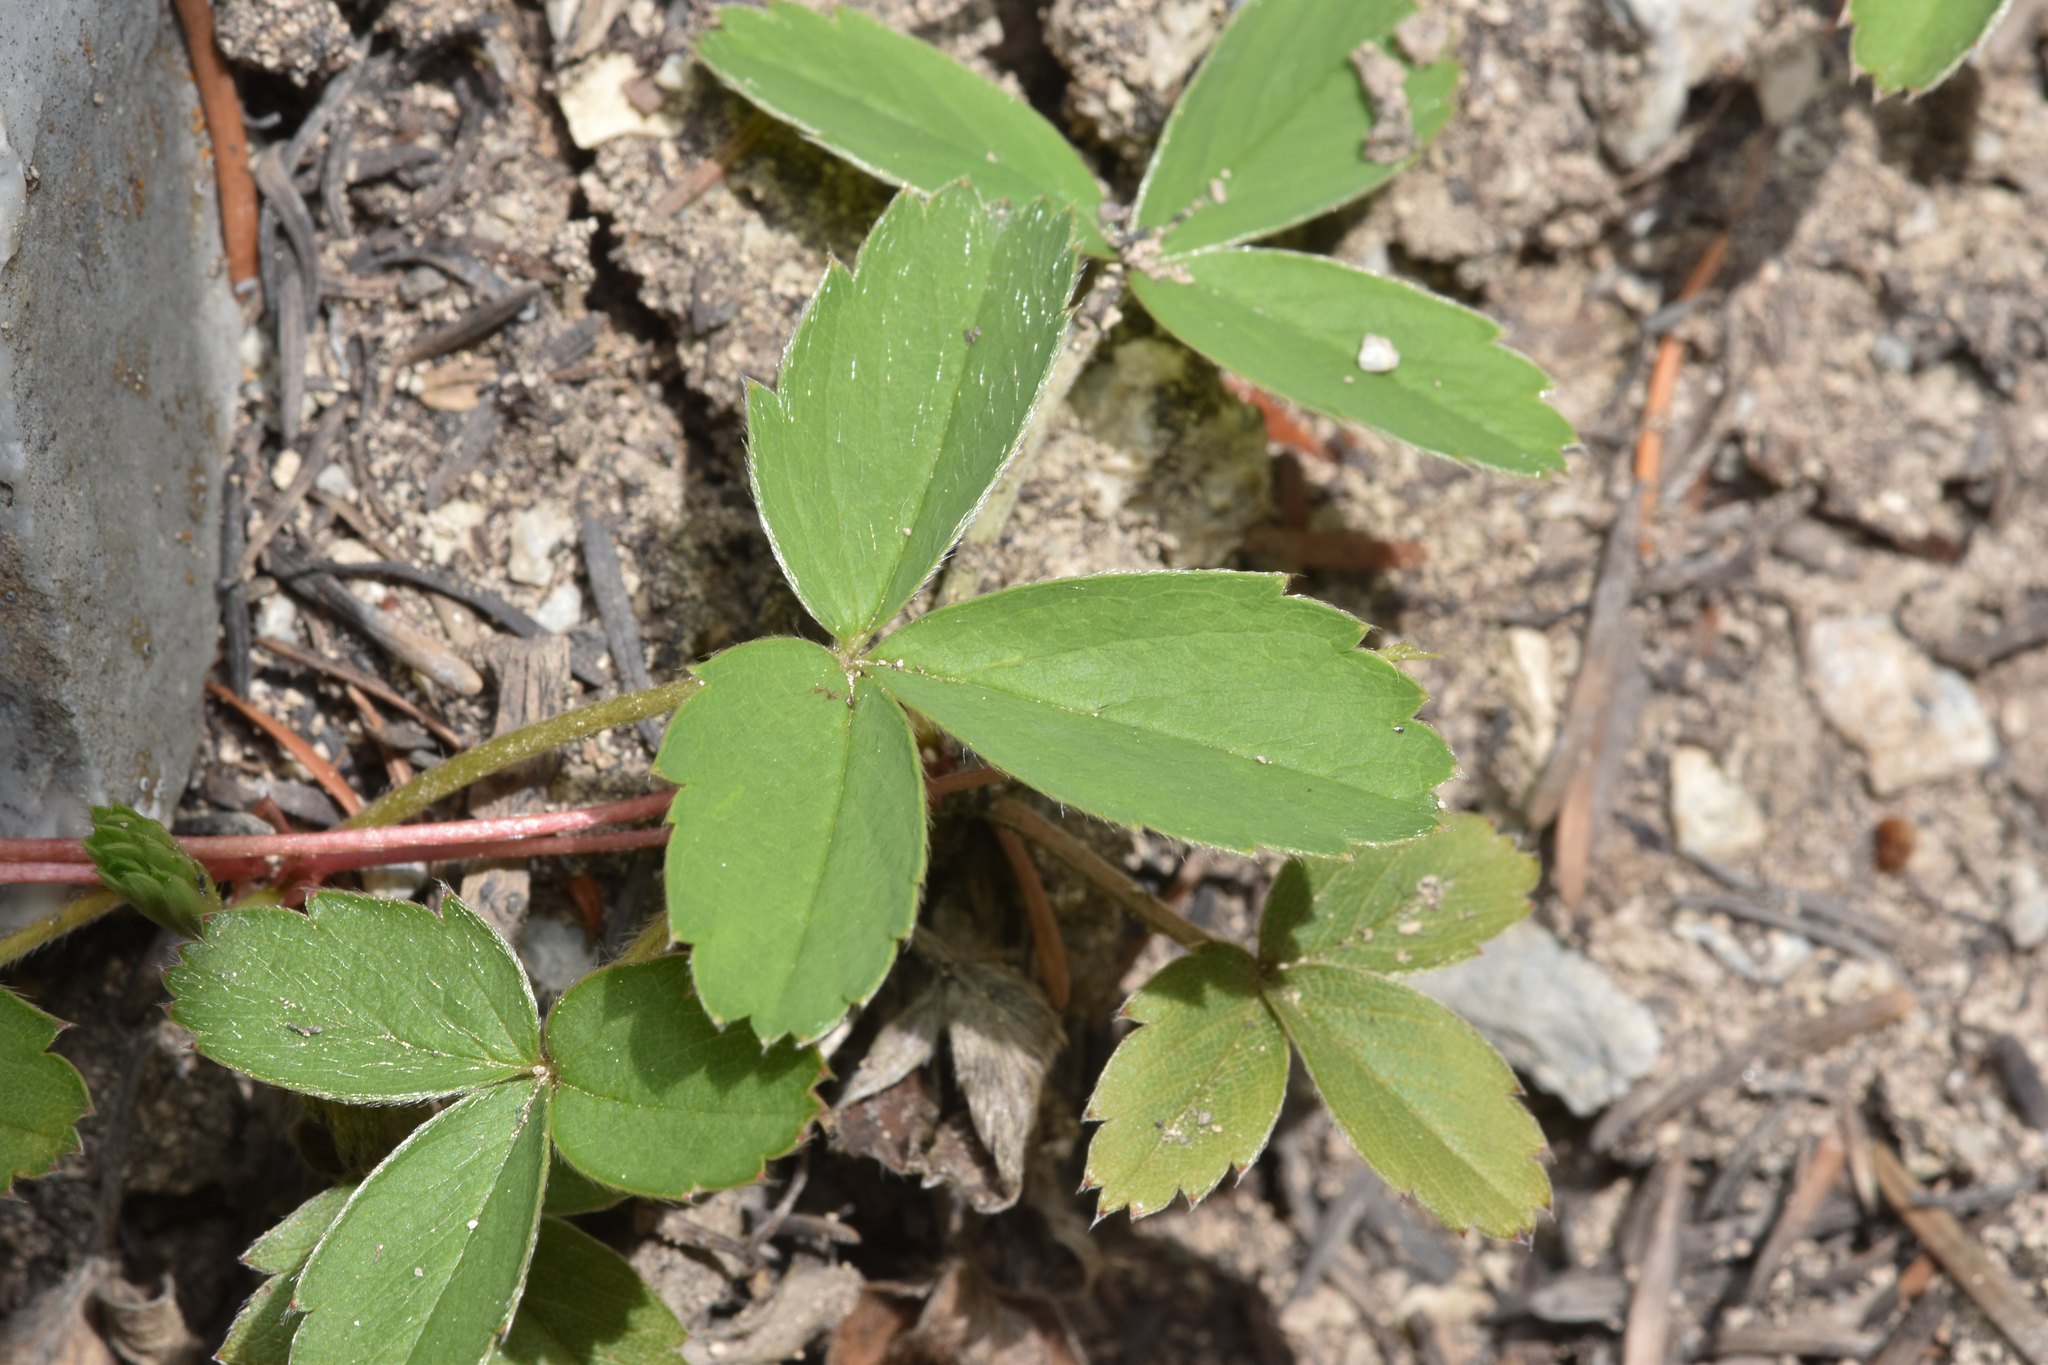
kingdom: Plantae
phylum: Tracheophyta
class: Magnoliopsida
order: Rosales
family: Rosaceae
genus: Fragaria
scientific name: Fragaria virginiana
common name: Thickleaved wild strawberry
